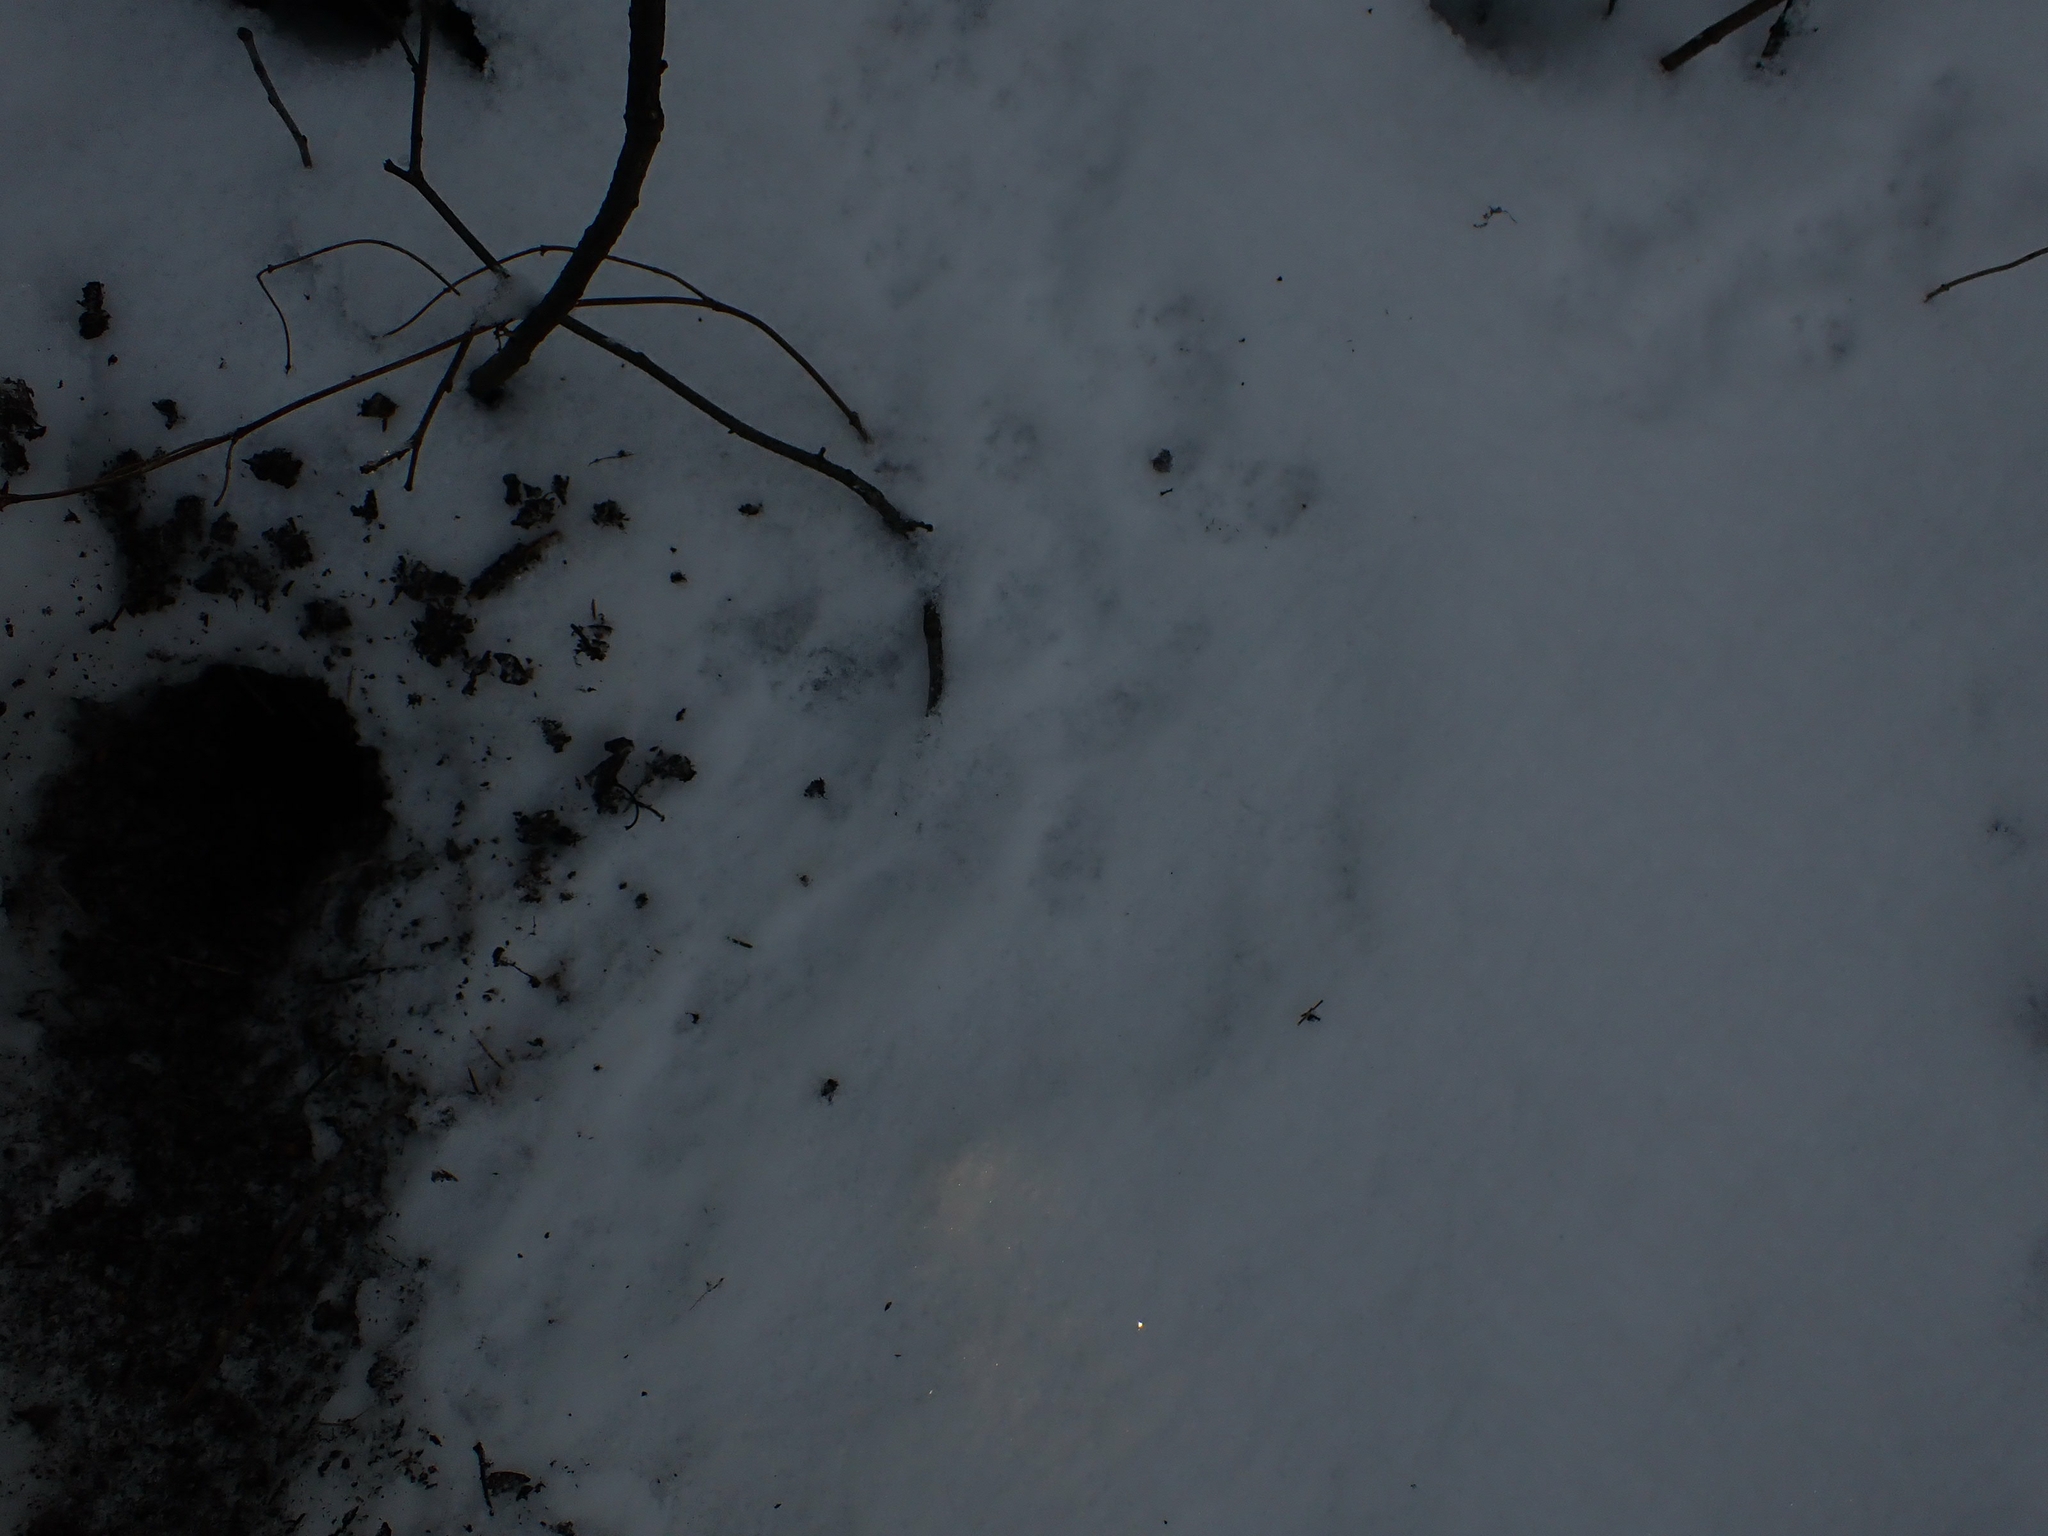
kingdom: Animalia
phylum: Chordata
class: Mammalia
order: Rodentia
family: Sciuridae
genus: Tamiasciurus
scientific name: Tamiasciurus hudsonicus
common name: Red squirrel
